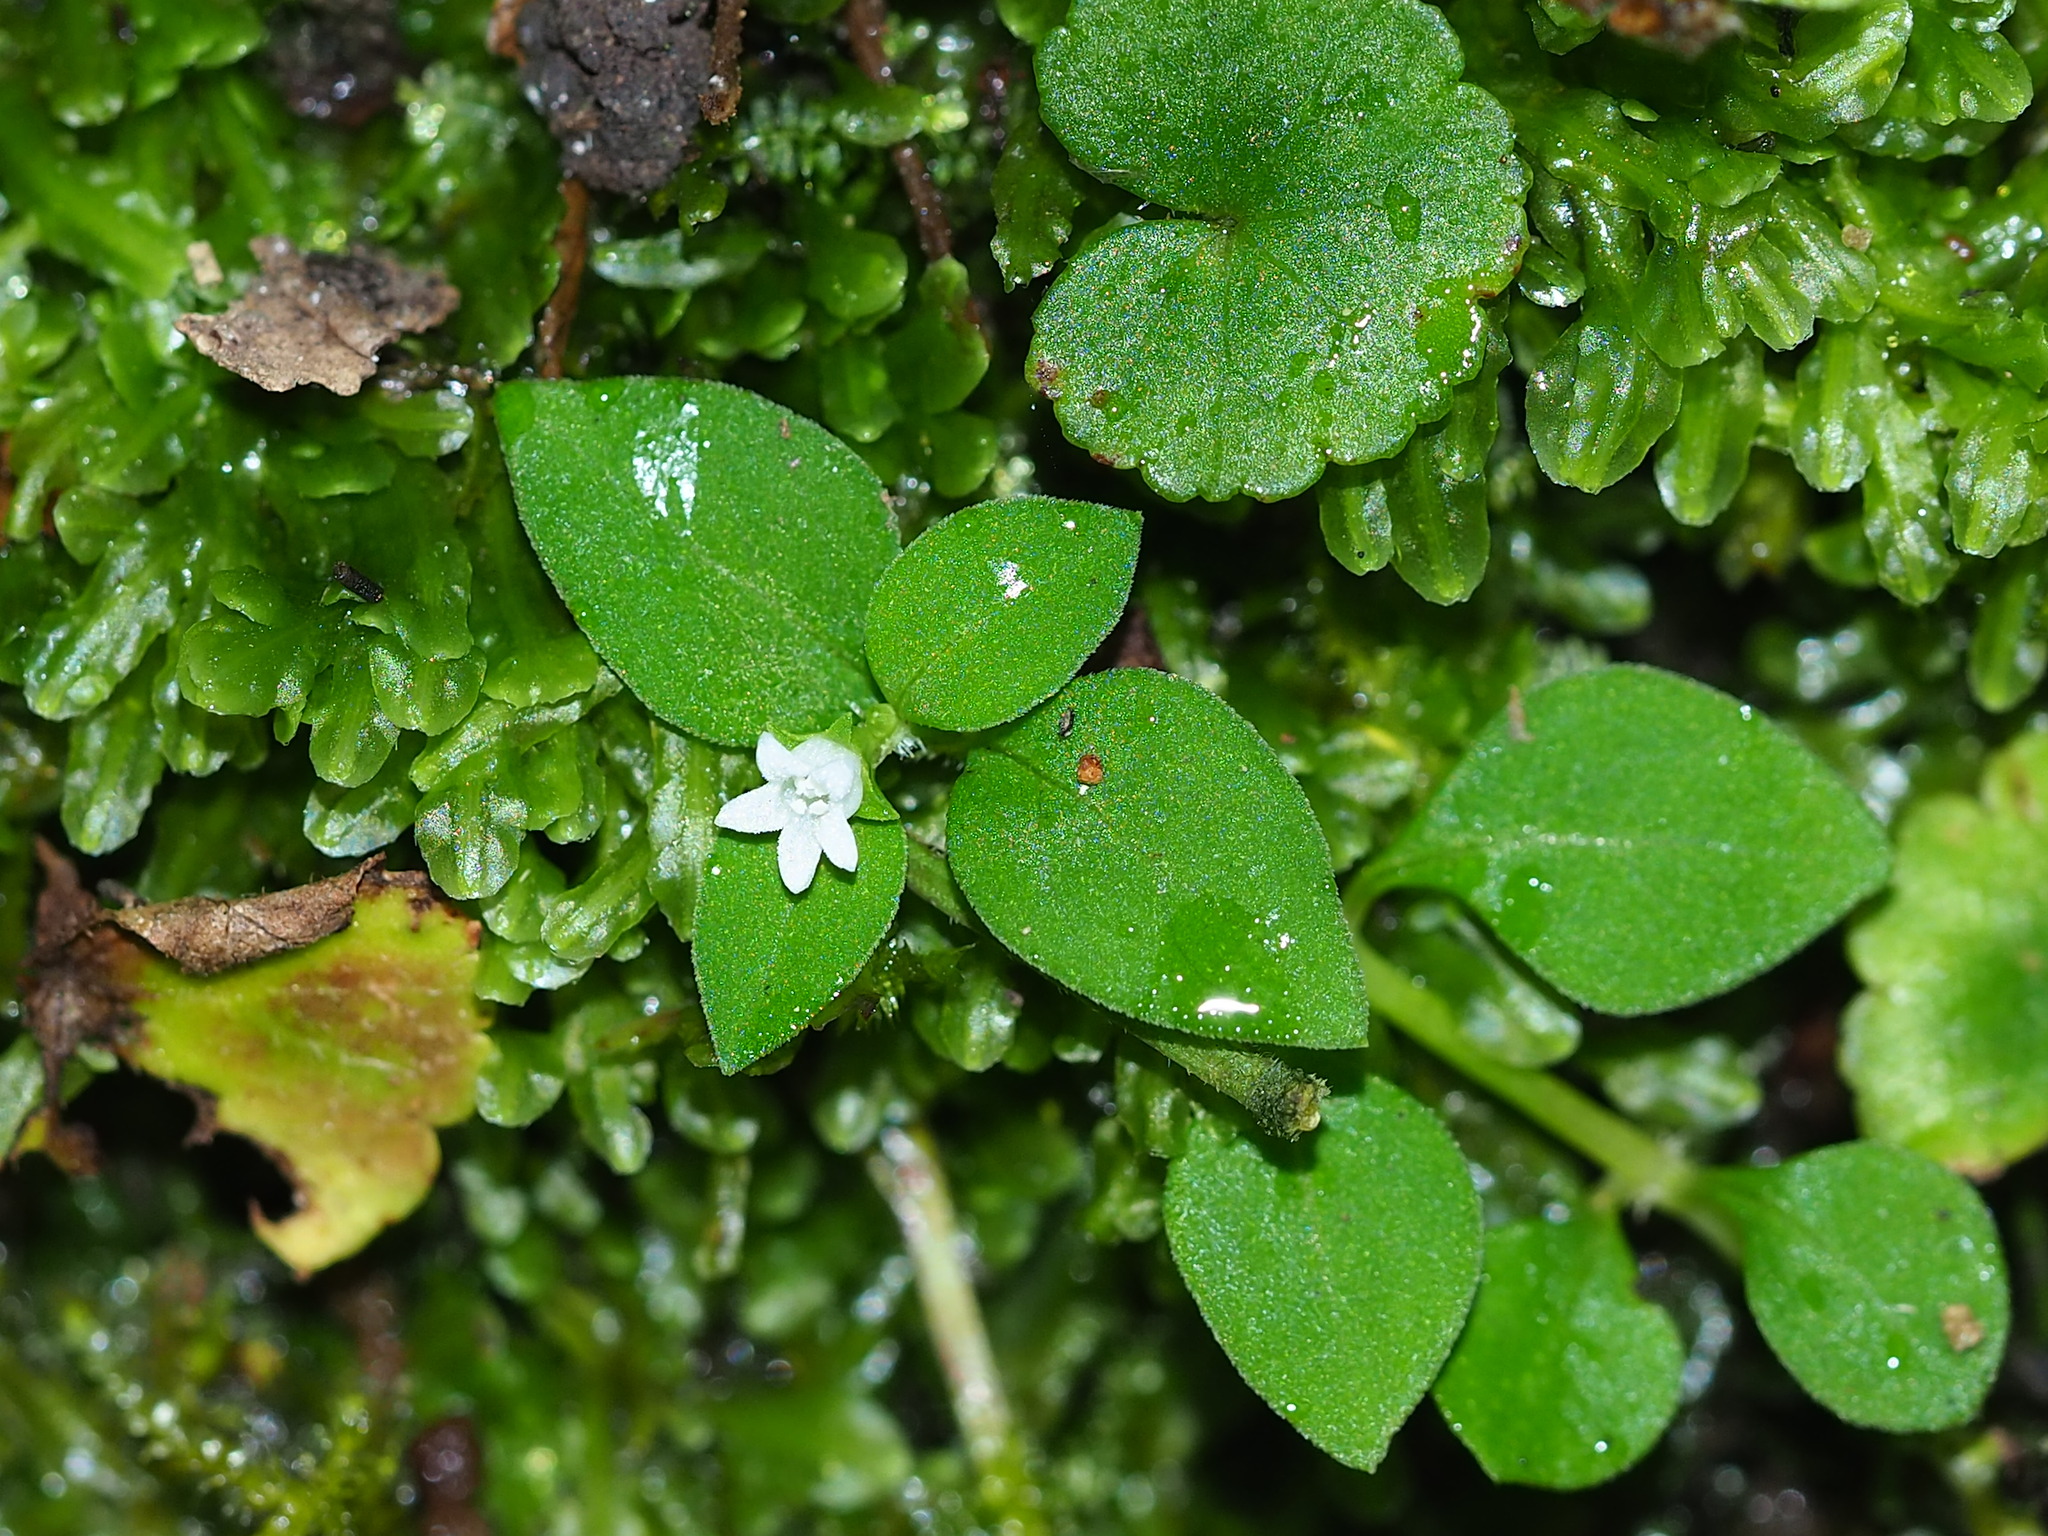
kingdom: Plantae
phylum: Tracheophyta
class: Magnoliopsida
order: Gentianales
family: Rubiaceae
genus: Neanotis
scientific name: Neanotis hirsuta
